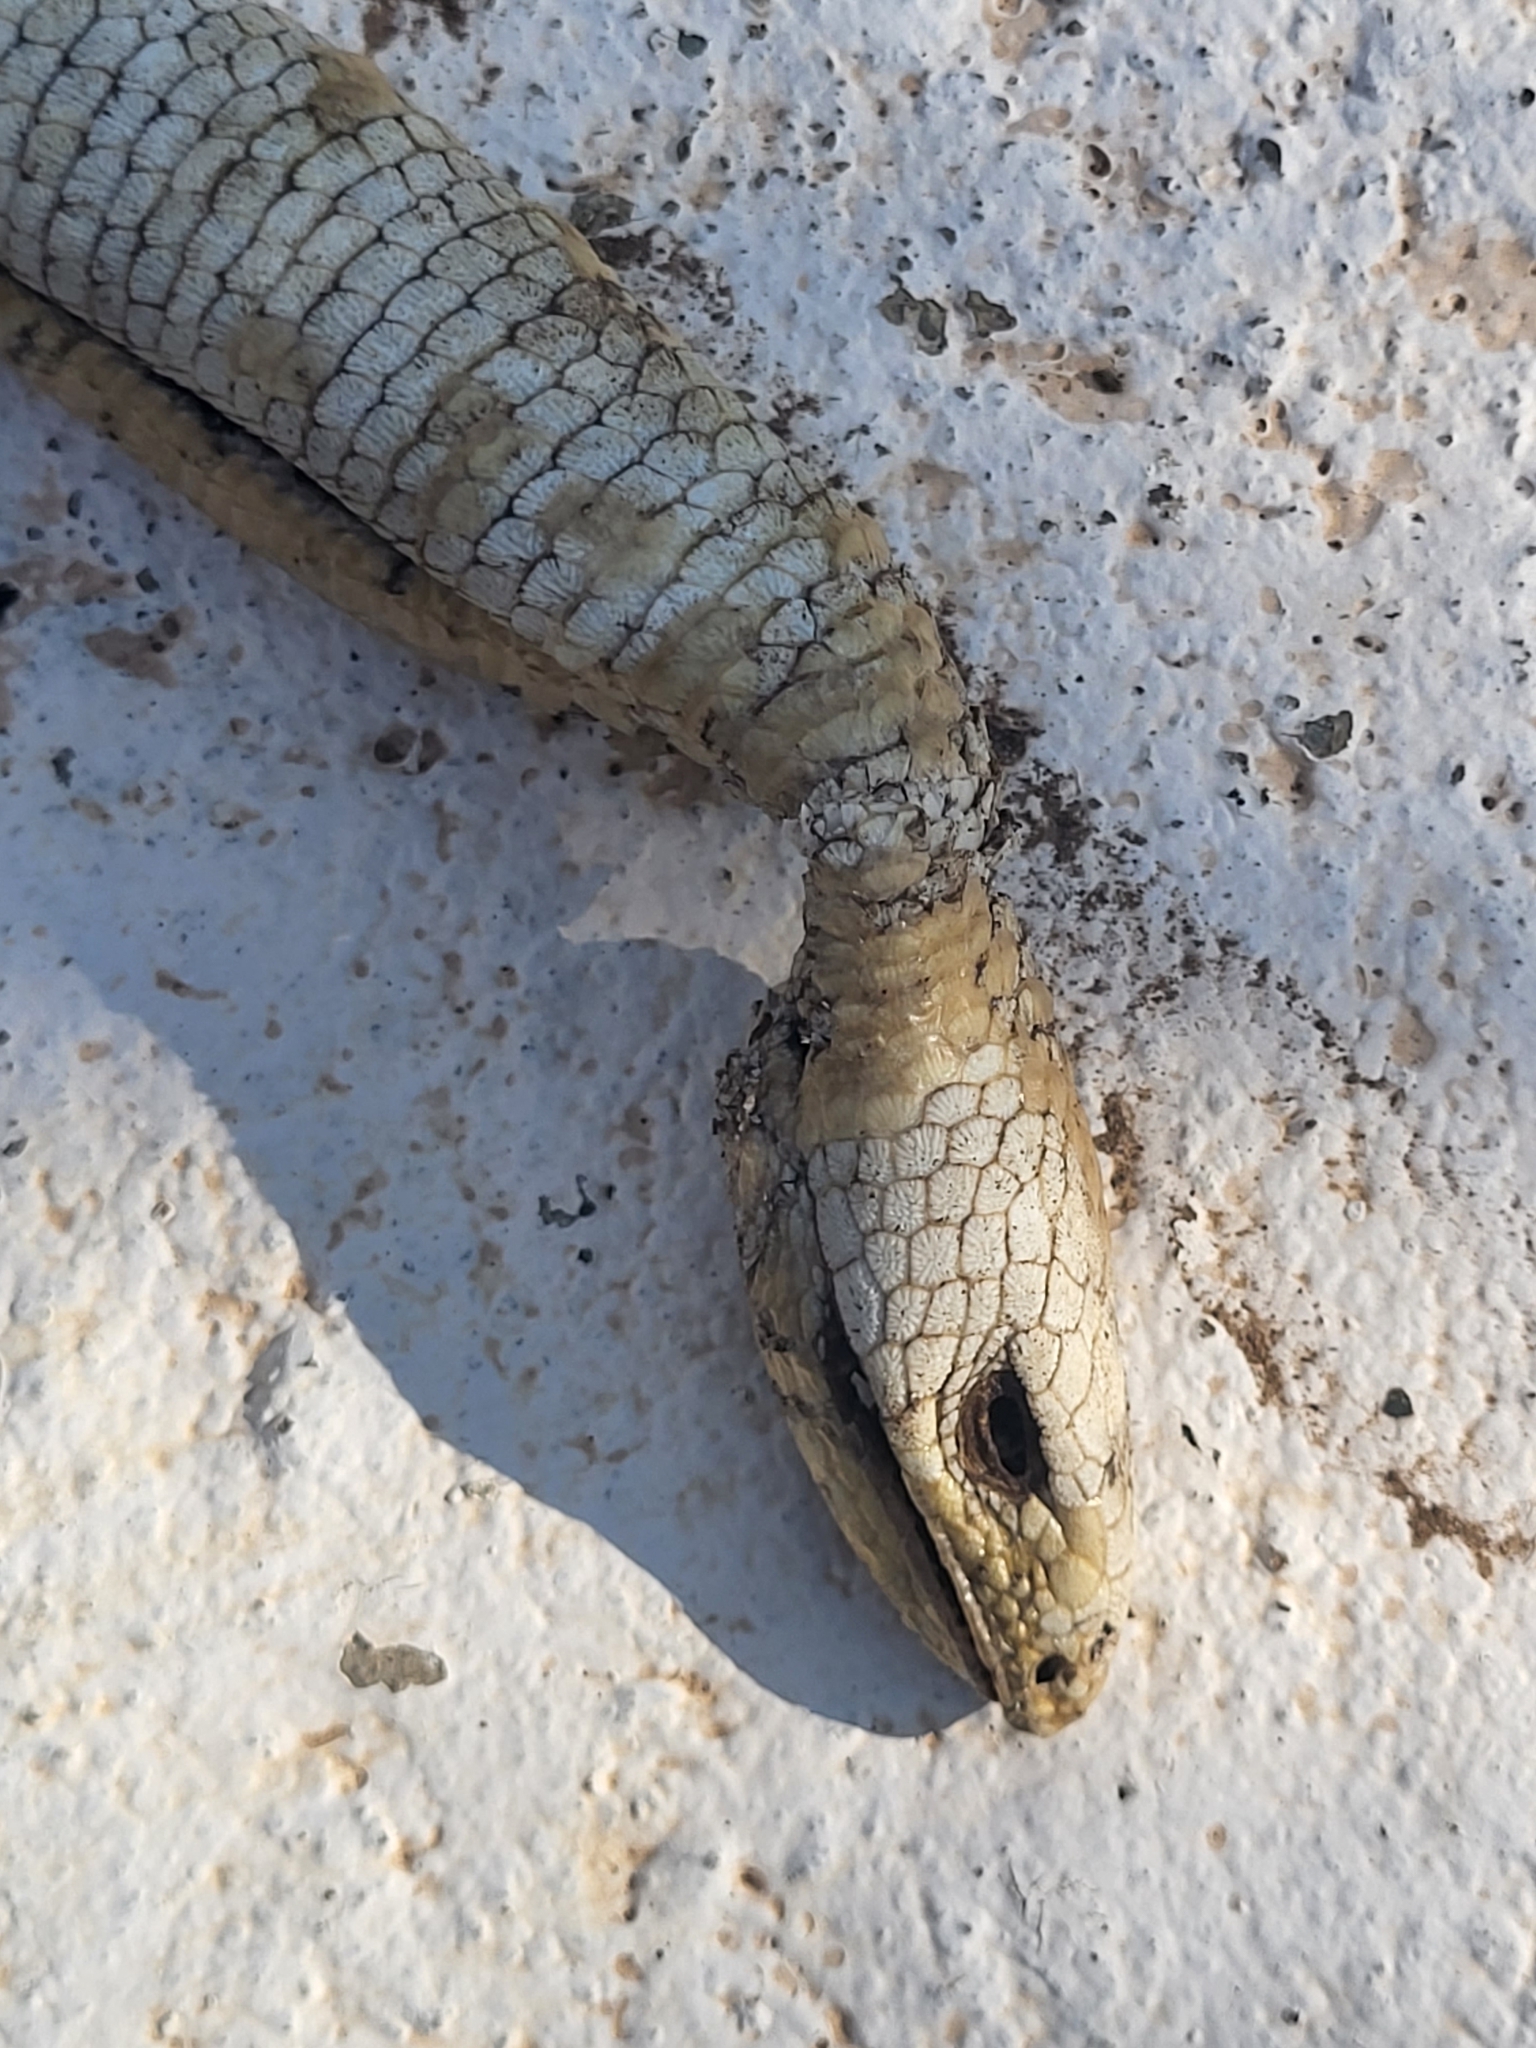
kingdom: Animalia
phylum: Chordata
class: Squamata
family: Anguidae
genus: Pseudopus
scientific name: Pseudopus apodus
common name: European glass lizard
